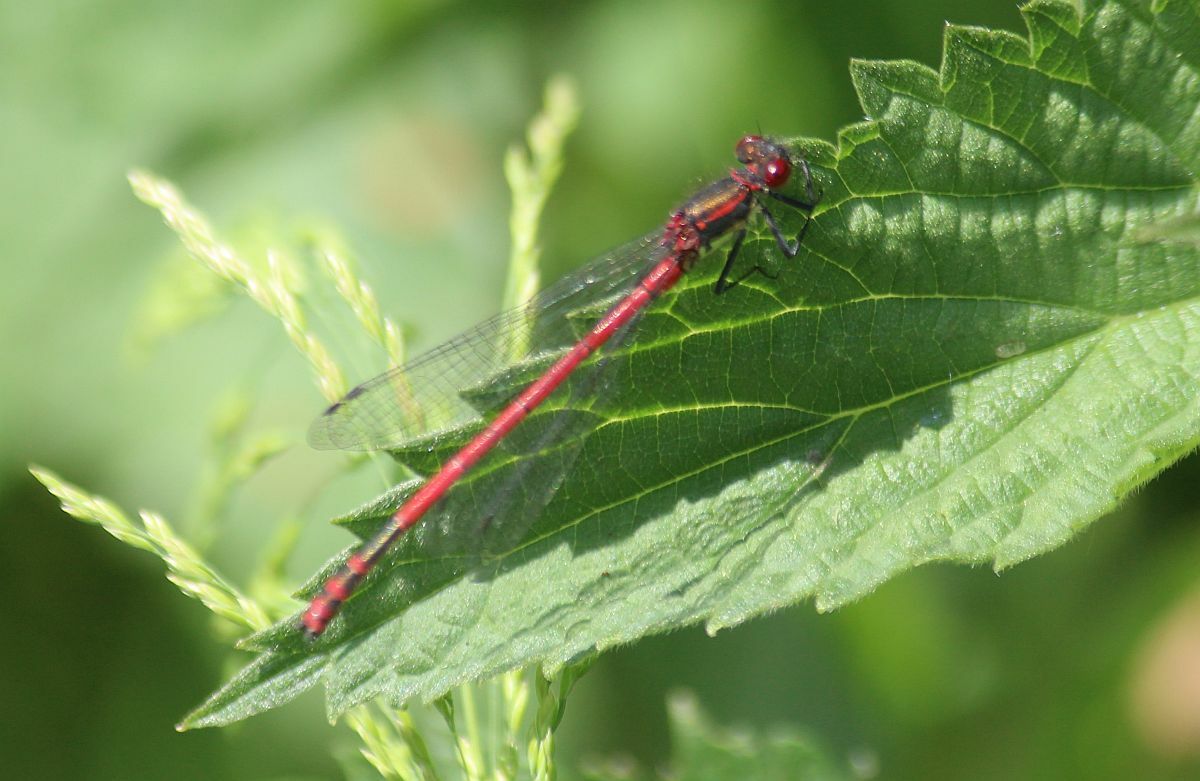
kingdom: Animalia
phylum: Arthropoda
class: Insecta
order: Odonata
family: Coenagrionidae
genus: Pyrrhosoma
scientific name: Pyrrhosoma nymphula
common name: Large red damsel
